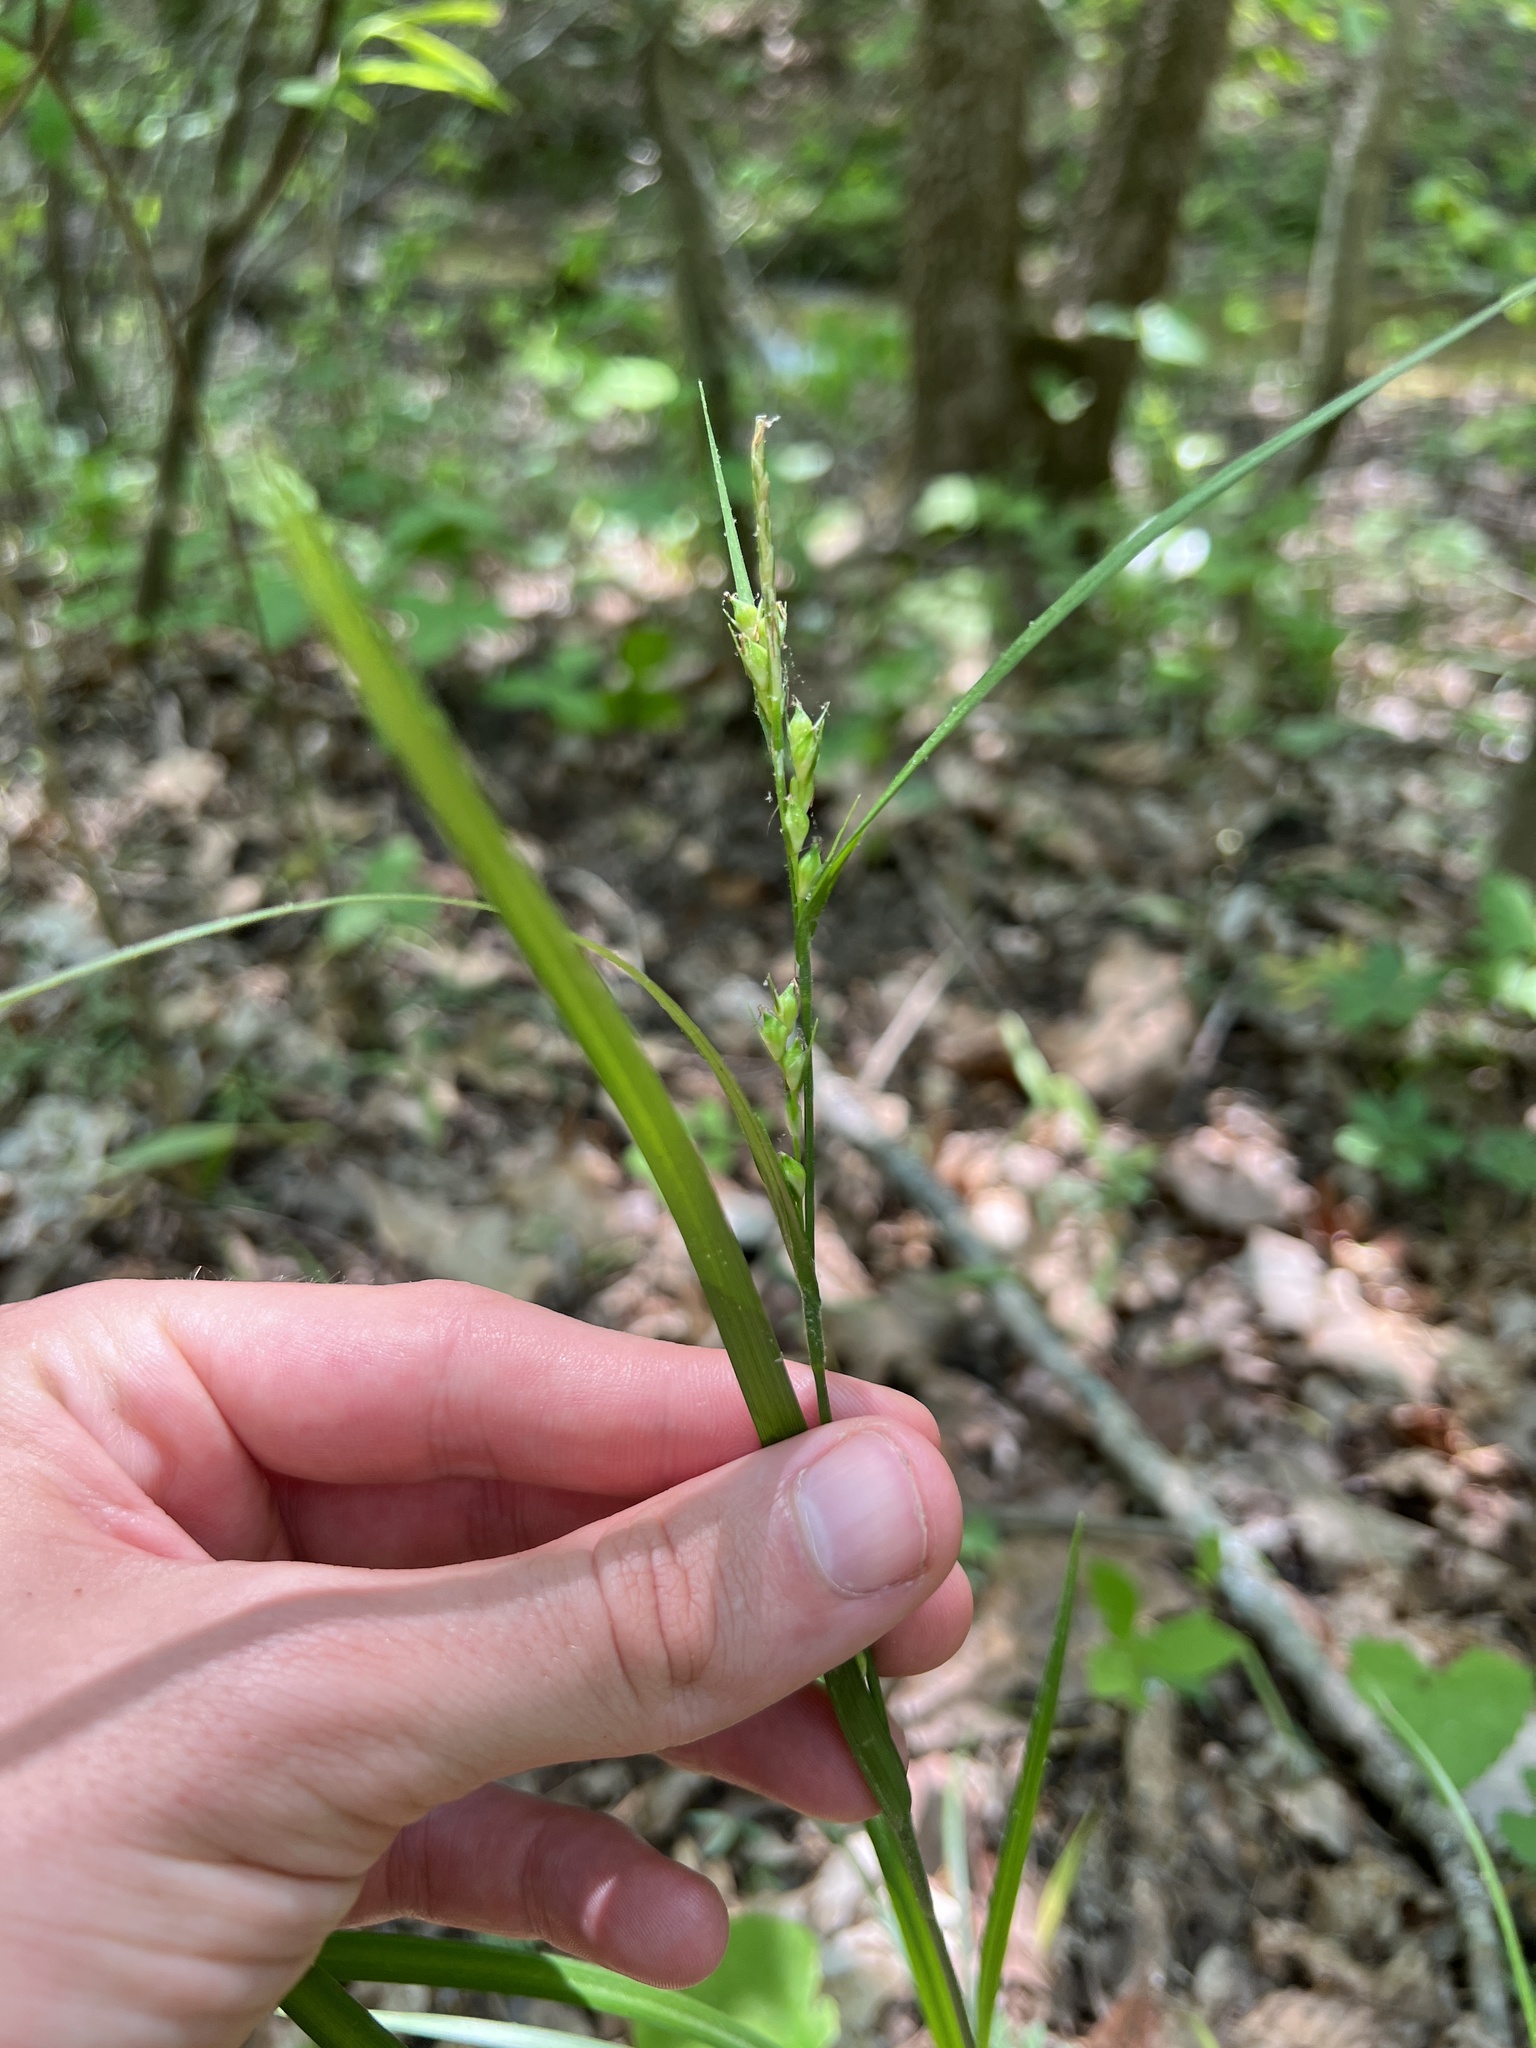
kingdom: Plantae
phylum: Tracheophyta
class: Liliopsida
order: Poales
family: Cyperaceae
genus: Carex
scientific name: Carex hitchcockiana
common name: Hairy grey sedge
